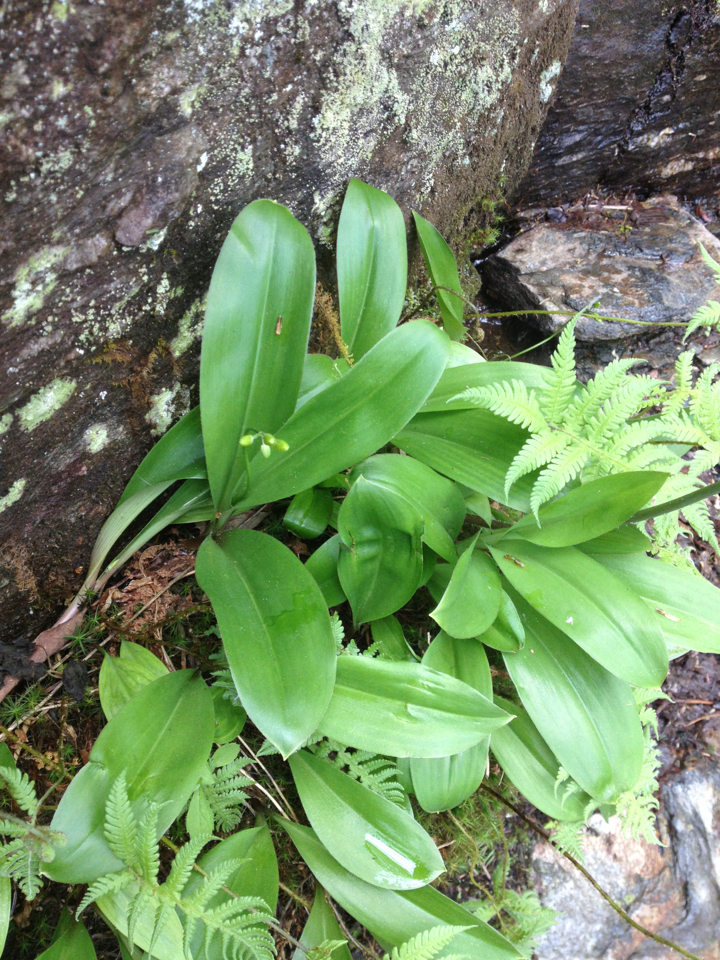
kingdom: Plantae
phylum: Tracheophyta
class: Liliopsida
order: Liliales
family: Liliaceae
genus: Clintonia
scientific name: Clintonia borealis
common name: Yellow clintonia
